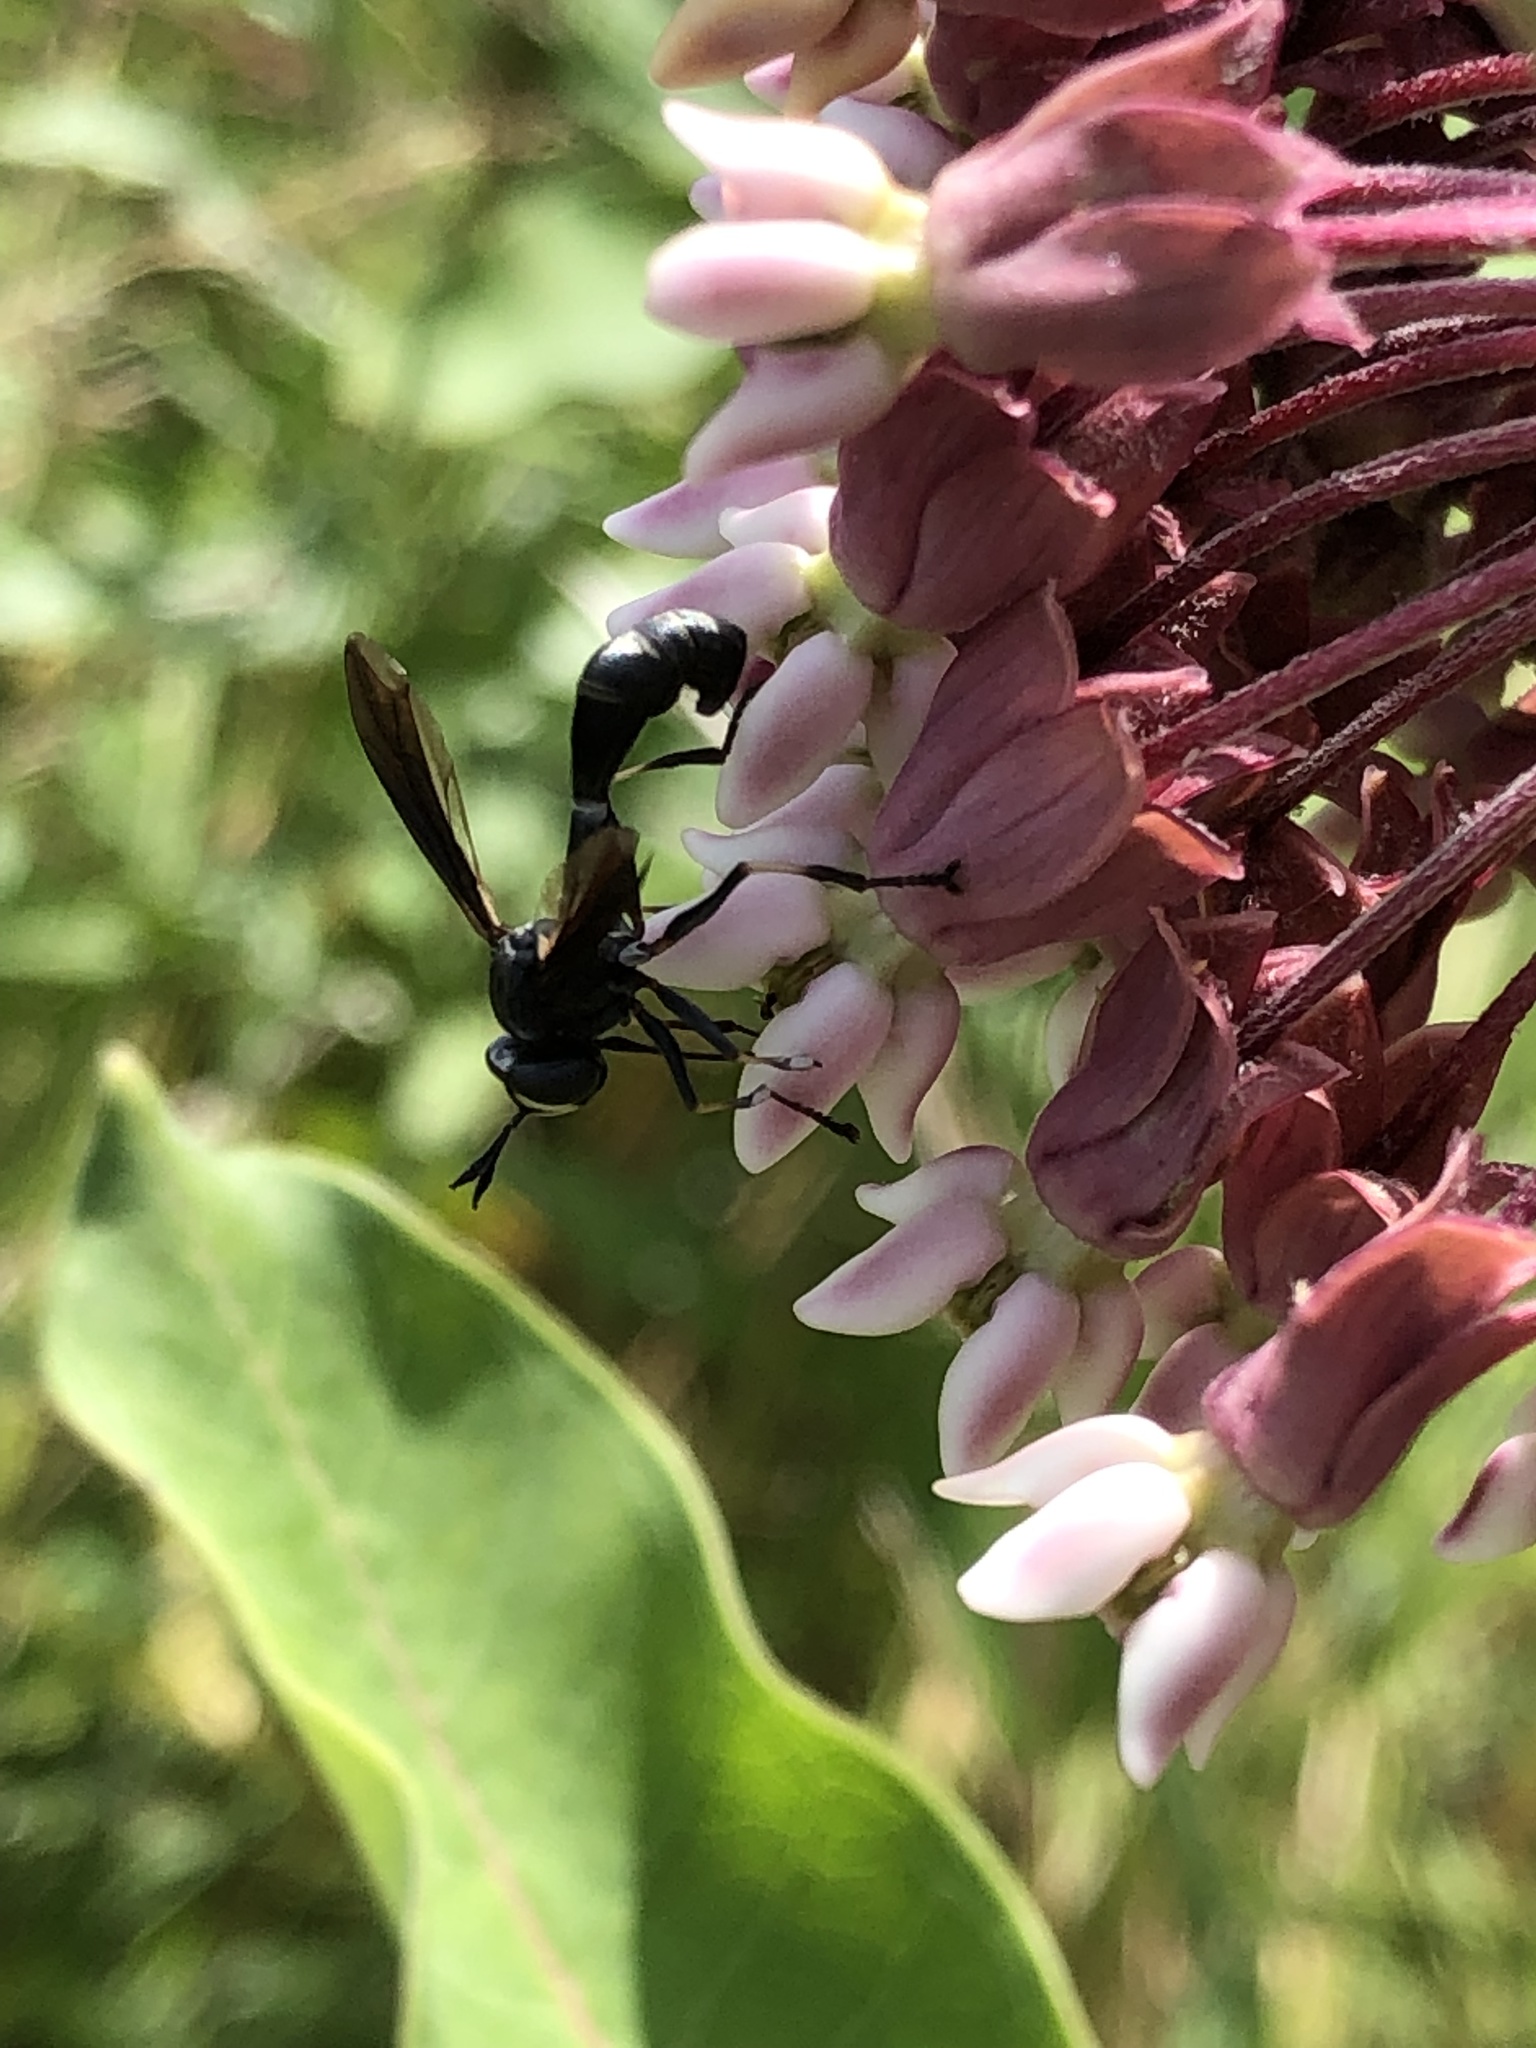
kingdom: Animalia
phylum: Arthropoda
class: Insecta
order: Diptera
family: Conopidae
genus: Physocephala
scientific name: Physocephala tibialis
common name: Common eastern physocephala
